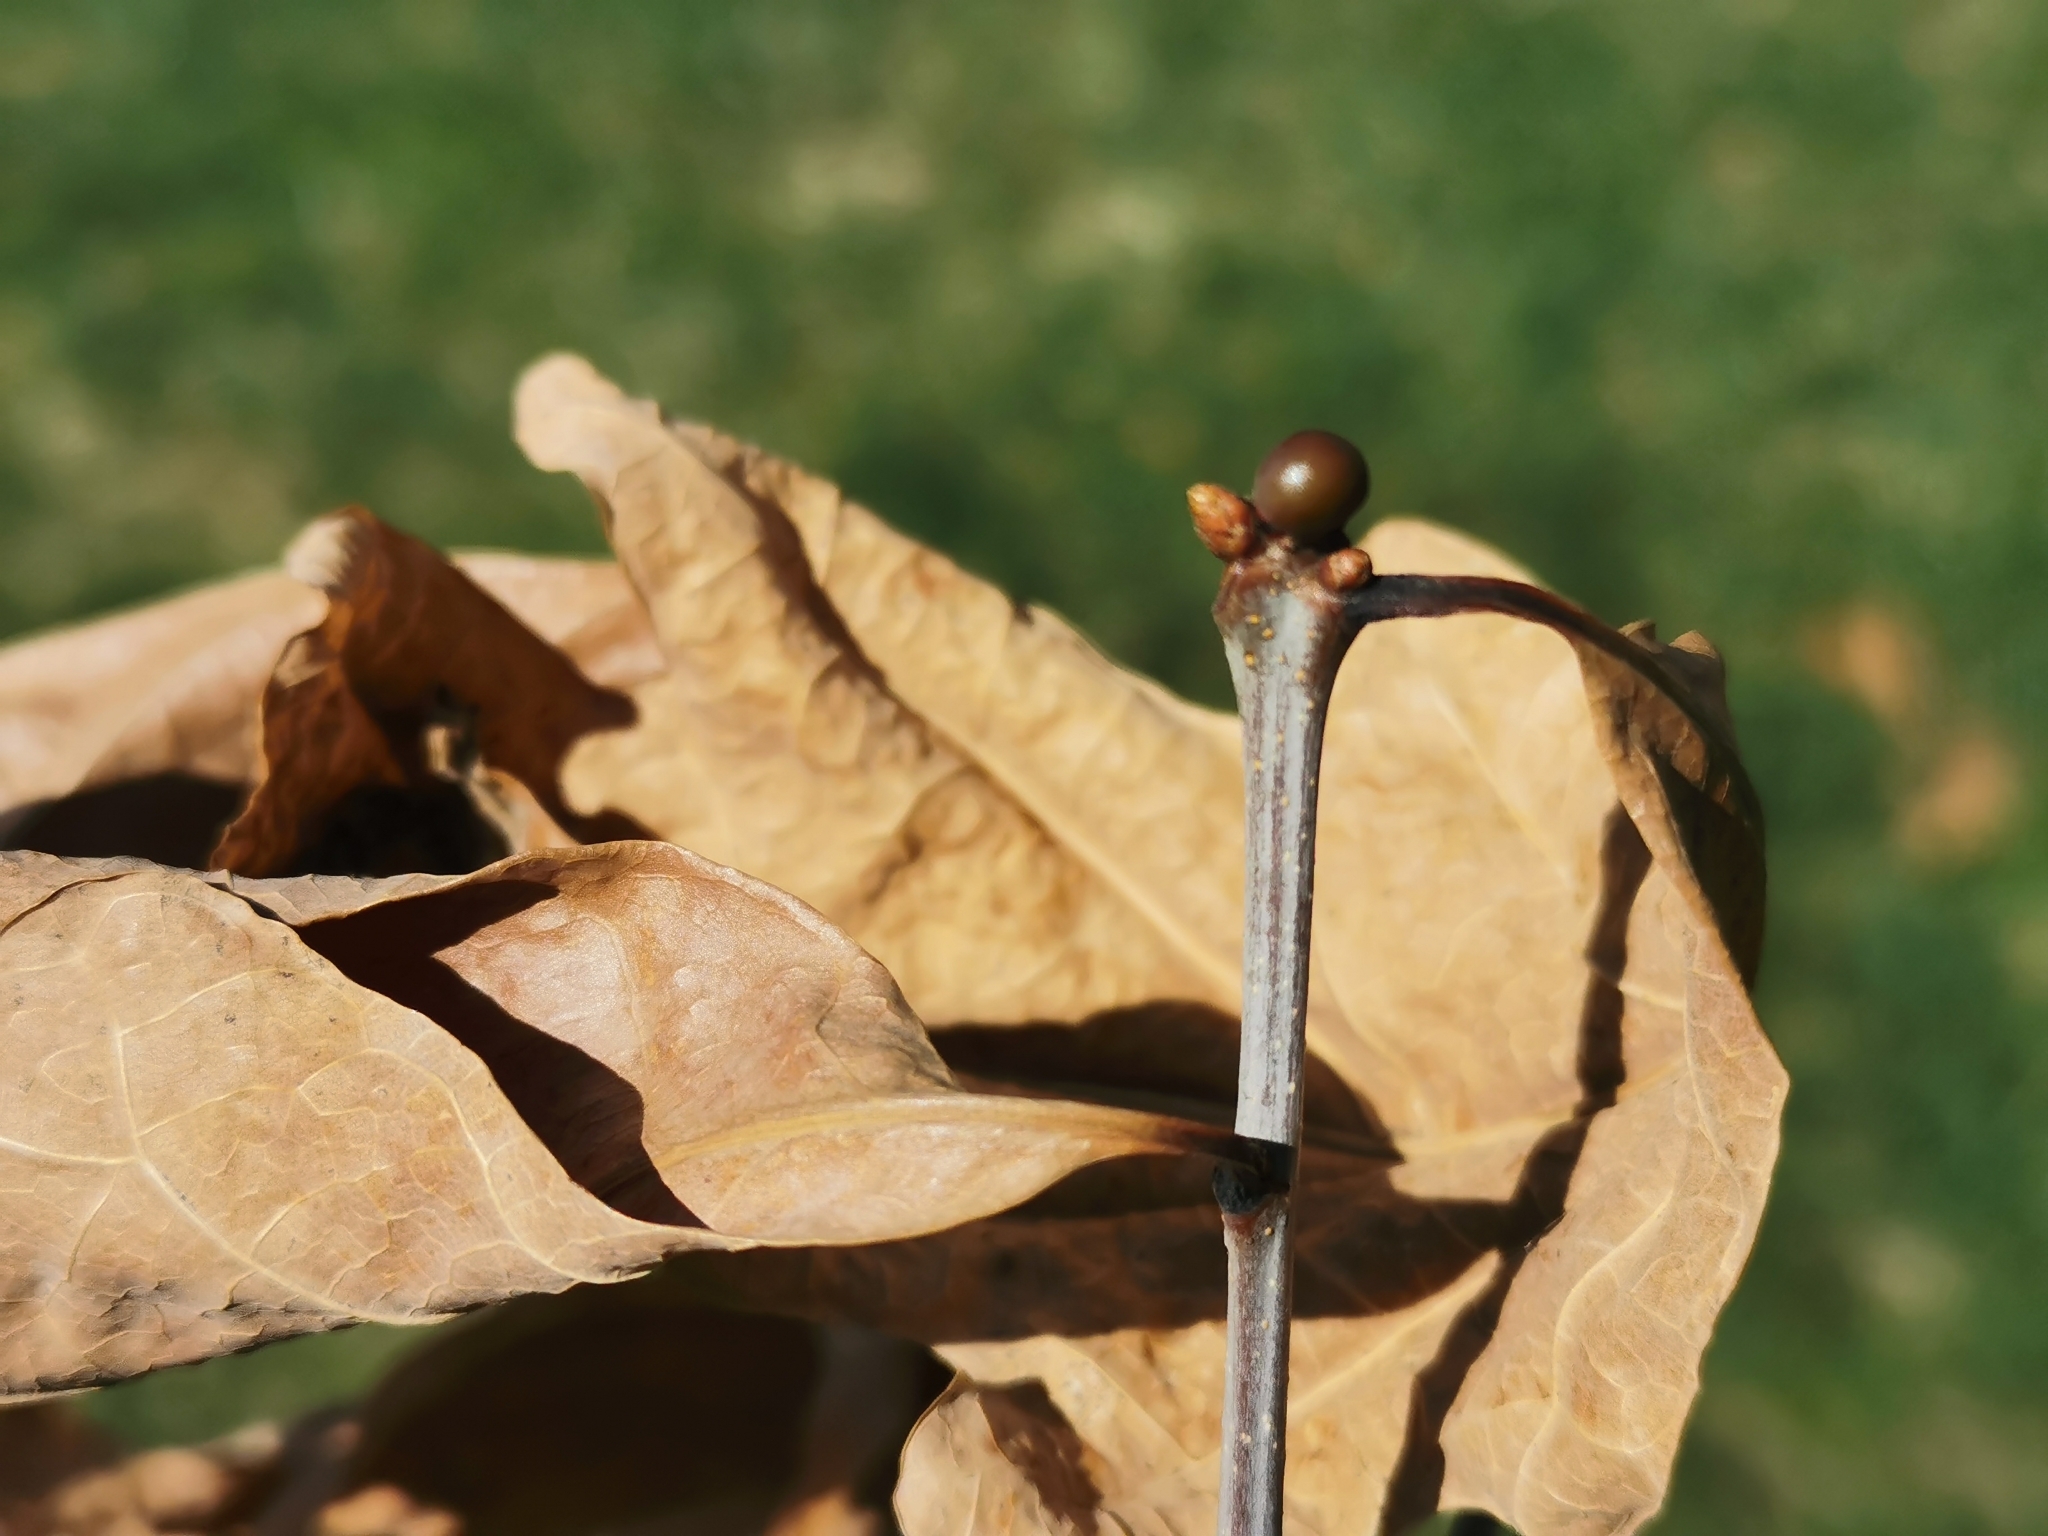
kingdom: Animalia
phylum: Arthropoda
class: Insecta
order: Hymenoptera
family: Cynipidae
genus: Neuroterus
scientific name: Neuroterus
